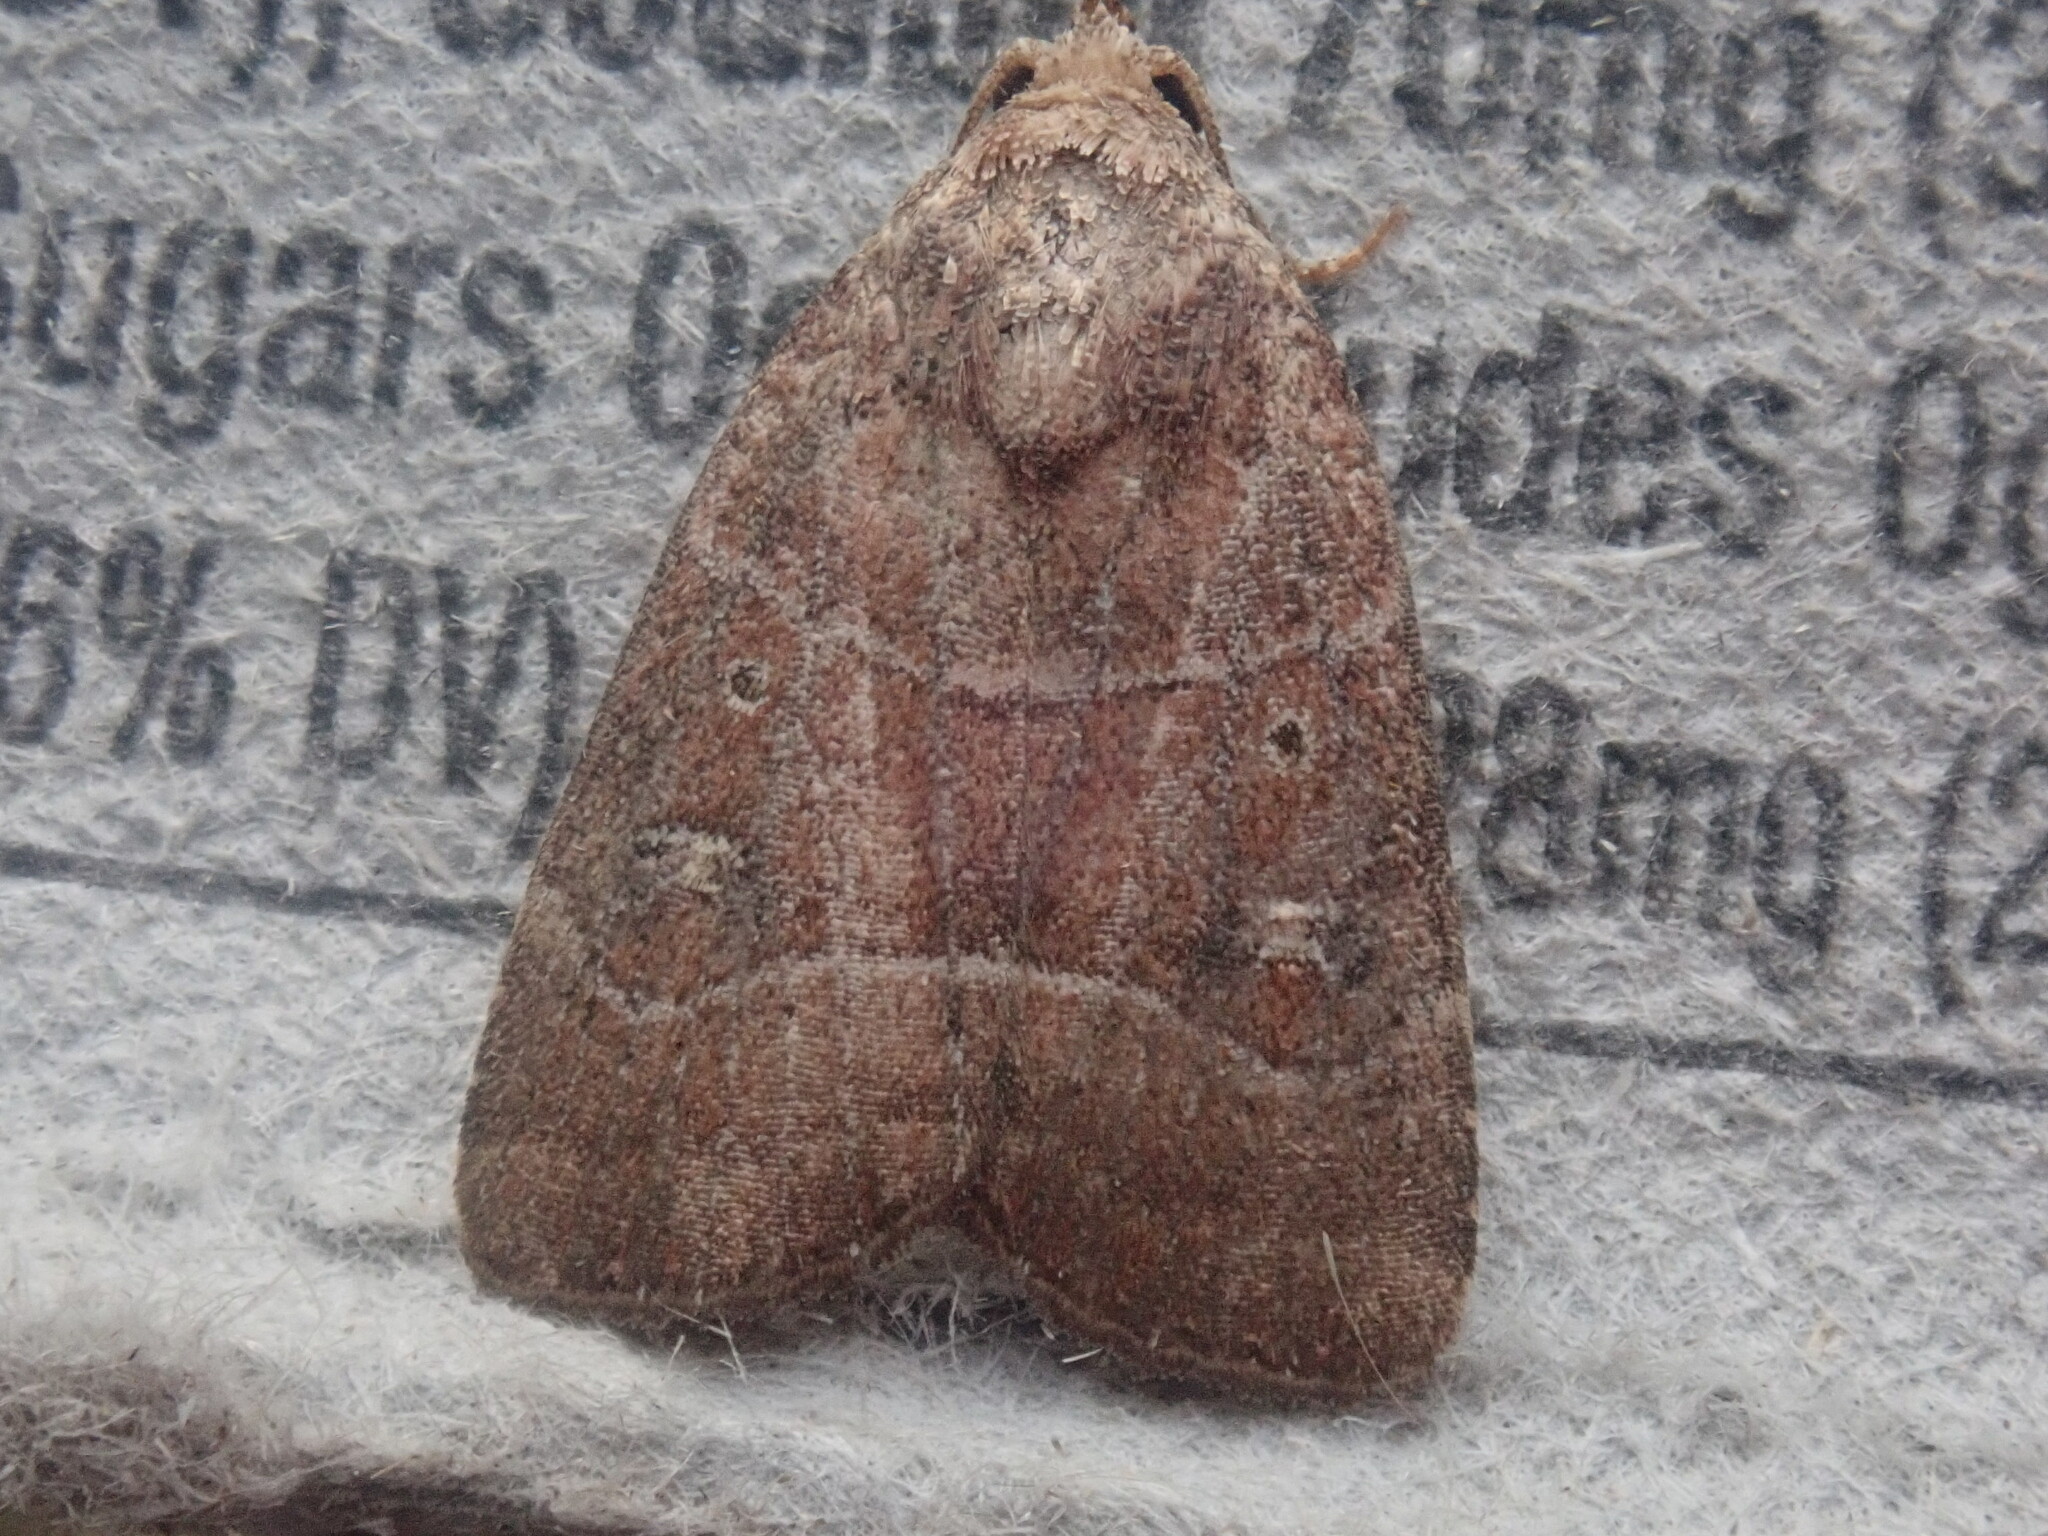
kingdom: Animalia
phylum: Arthropoda
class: Insecta
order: Lepidoptera
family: Noctuidae
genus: Elaphria
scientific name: Elaphria grata
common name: Grateful midget moth
